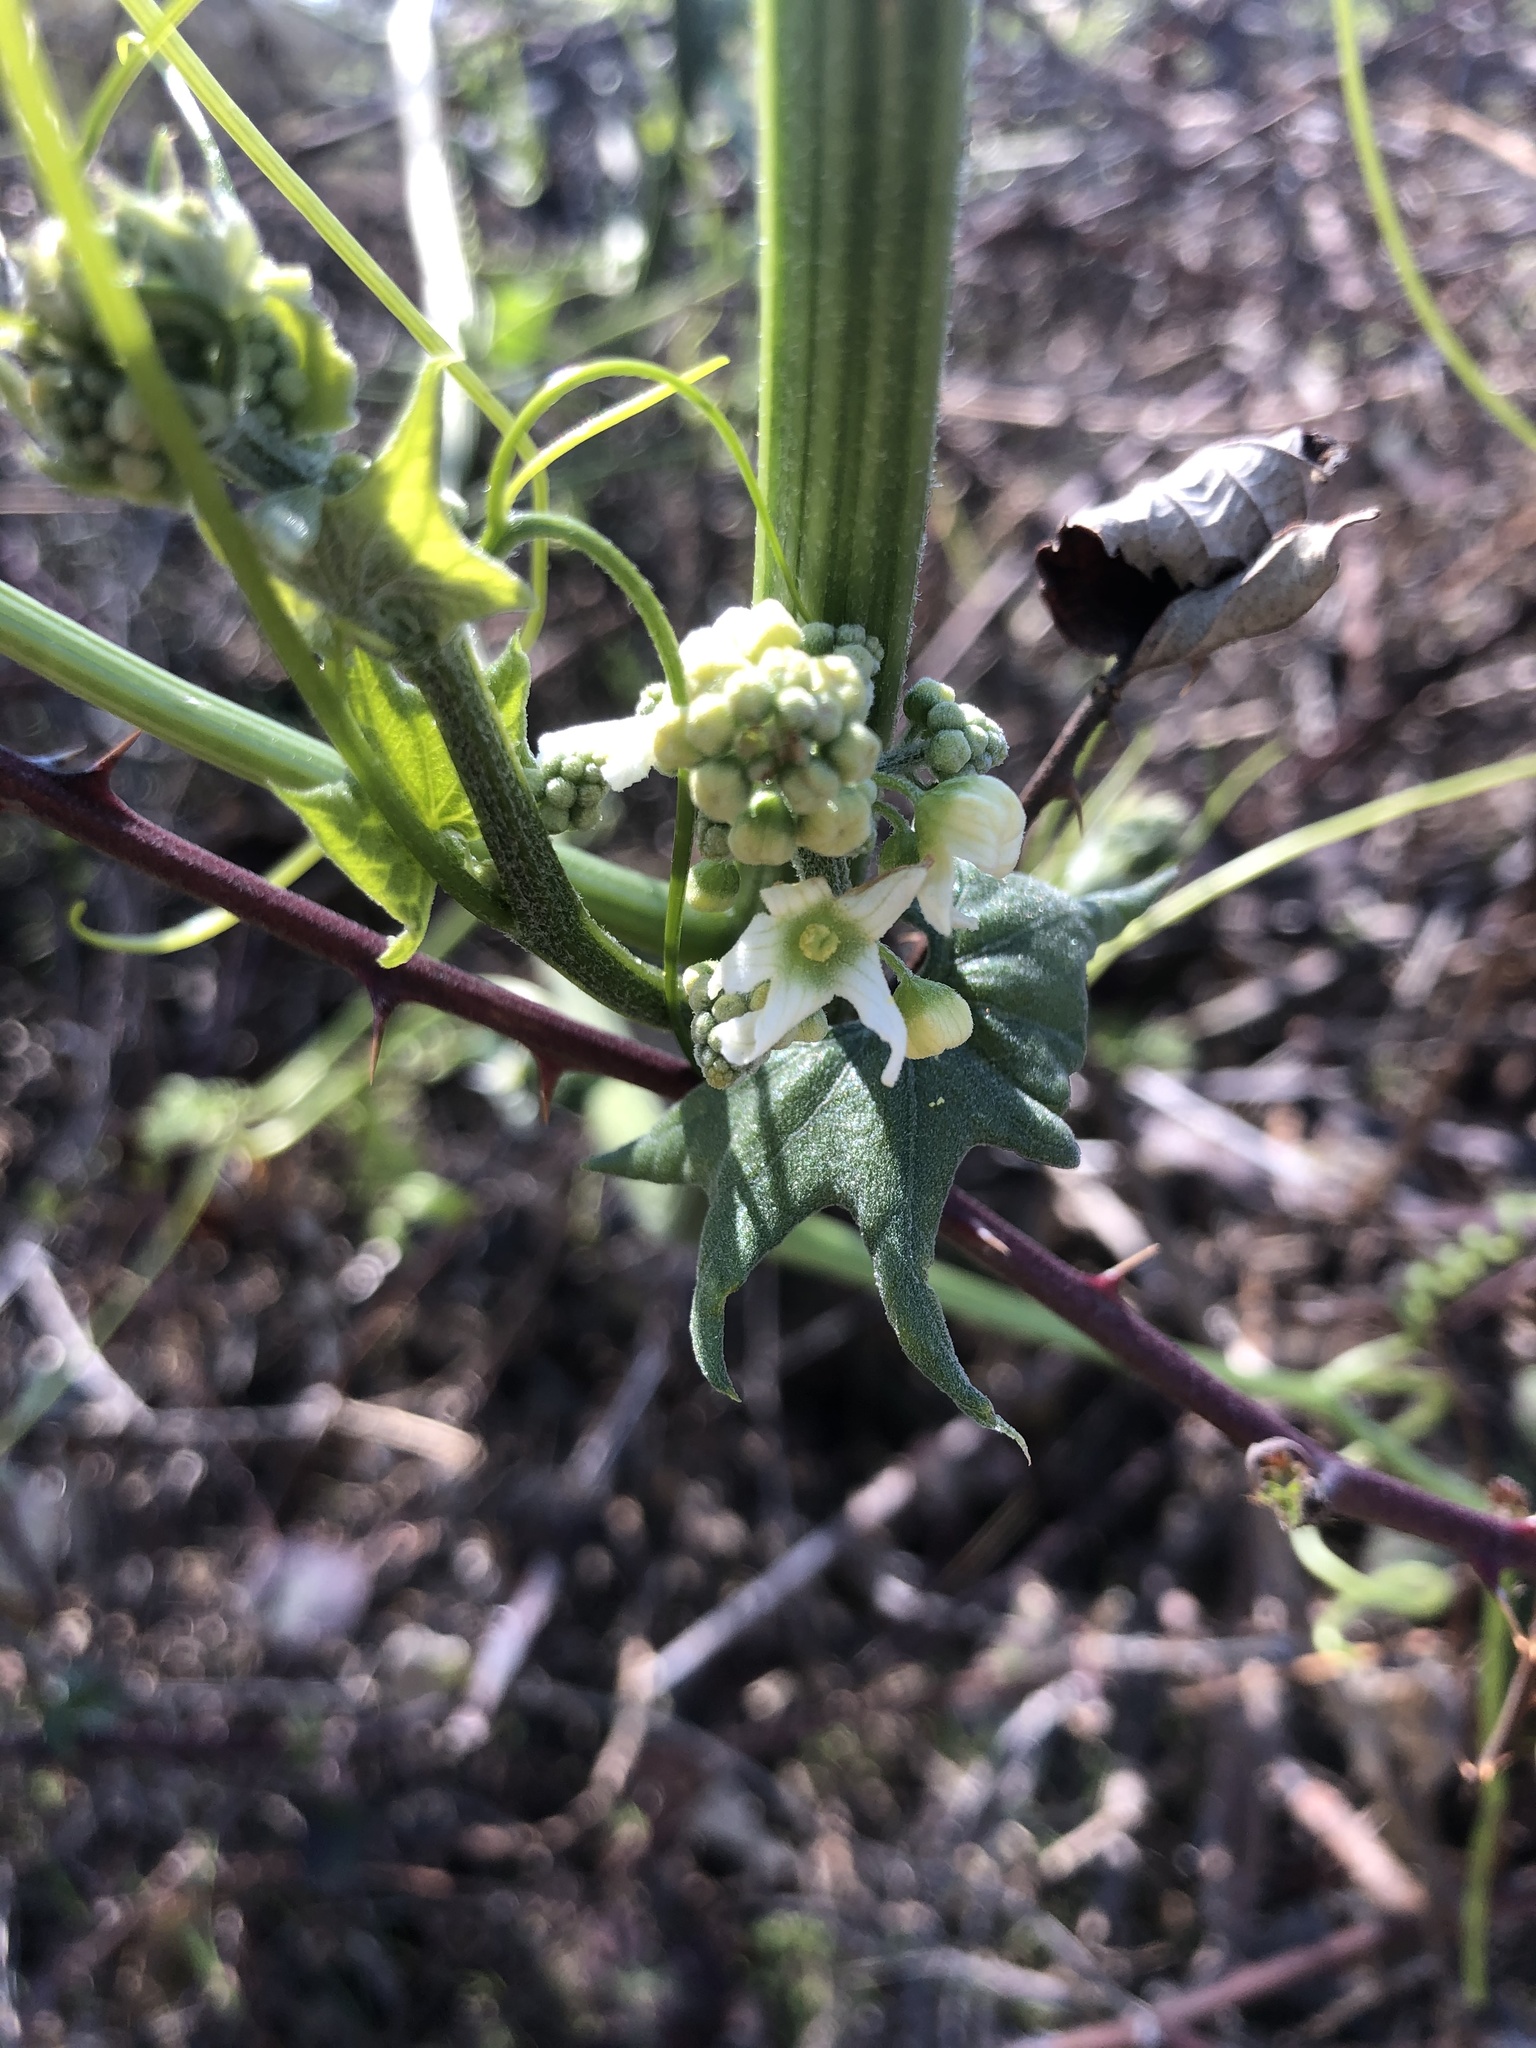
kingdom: Plantae
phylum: Tracheophyta
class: Magnoliopsida
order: Cucurbitales
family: Cucurbitaceae
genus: Marah
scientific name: Marah fabacea
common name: California manroot
